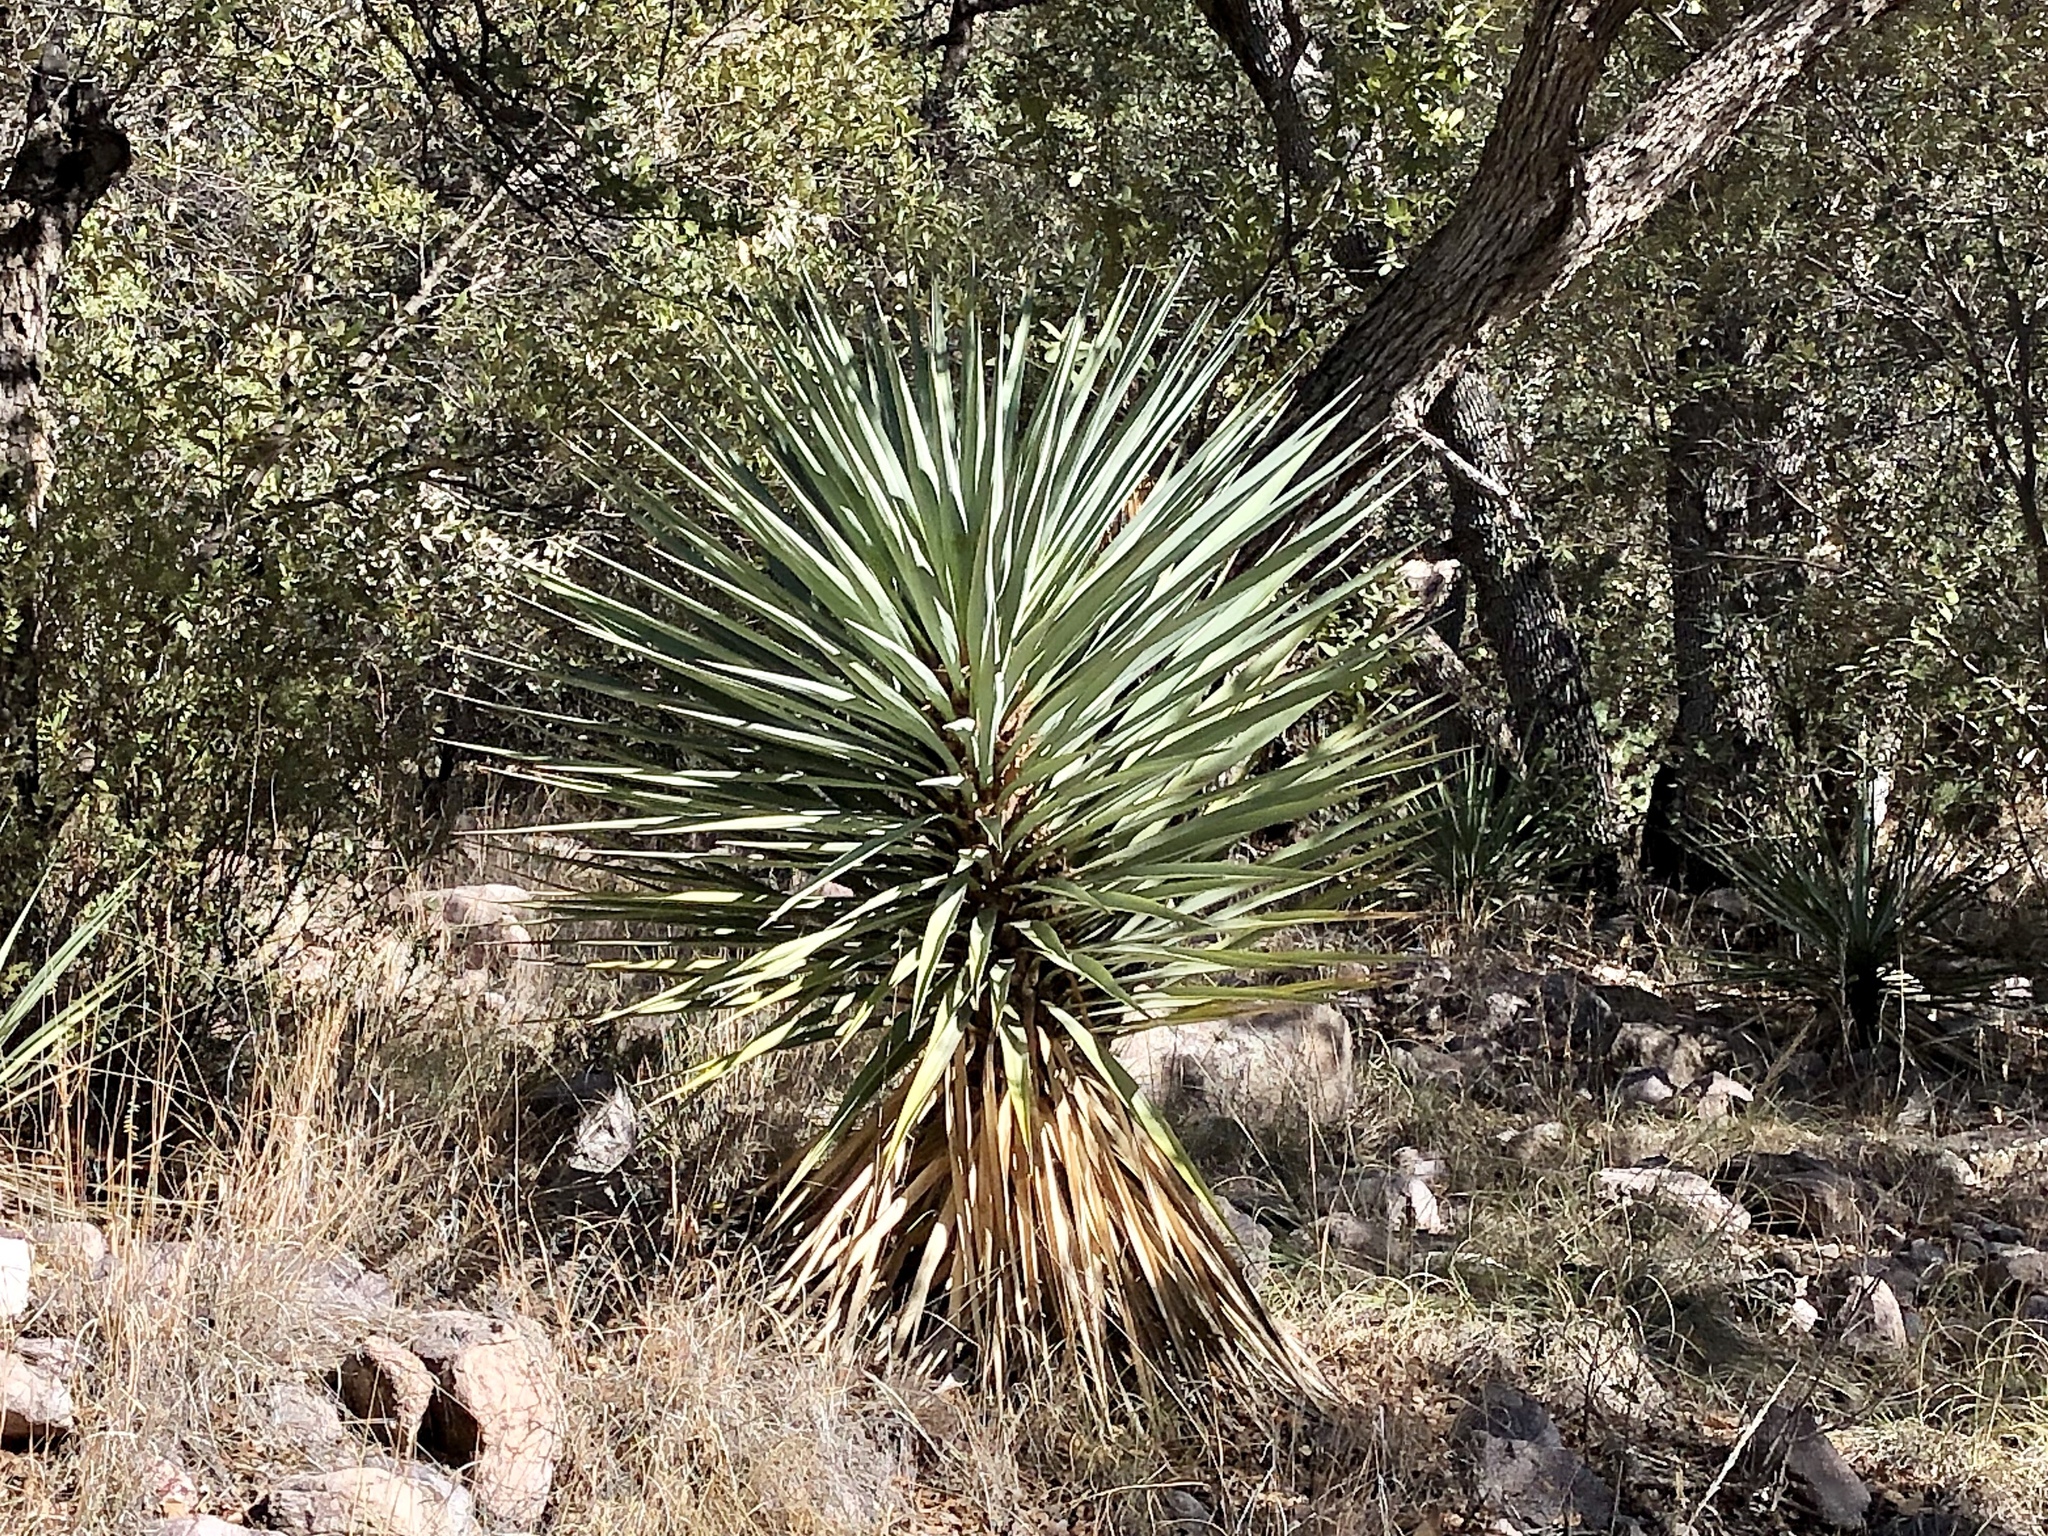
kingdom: Plantae
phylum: Tracheophyta
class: Liliopsida
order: Asparagales
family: Asparagaceae
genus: Yucca
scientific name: Yucca schottii
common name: Hoary yucca
